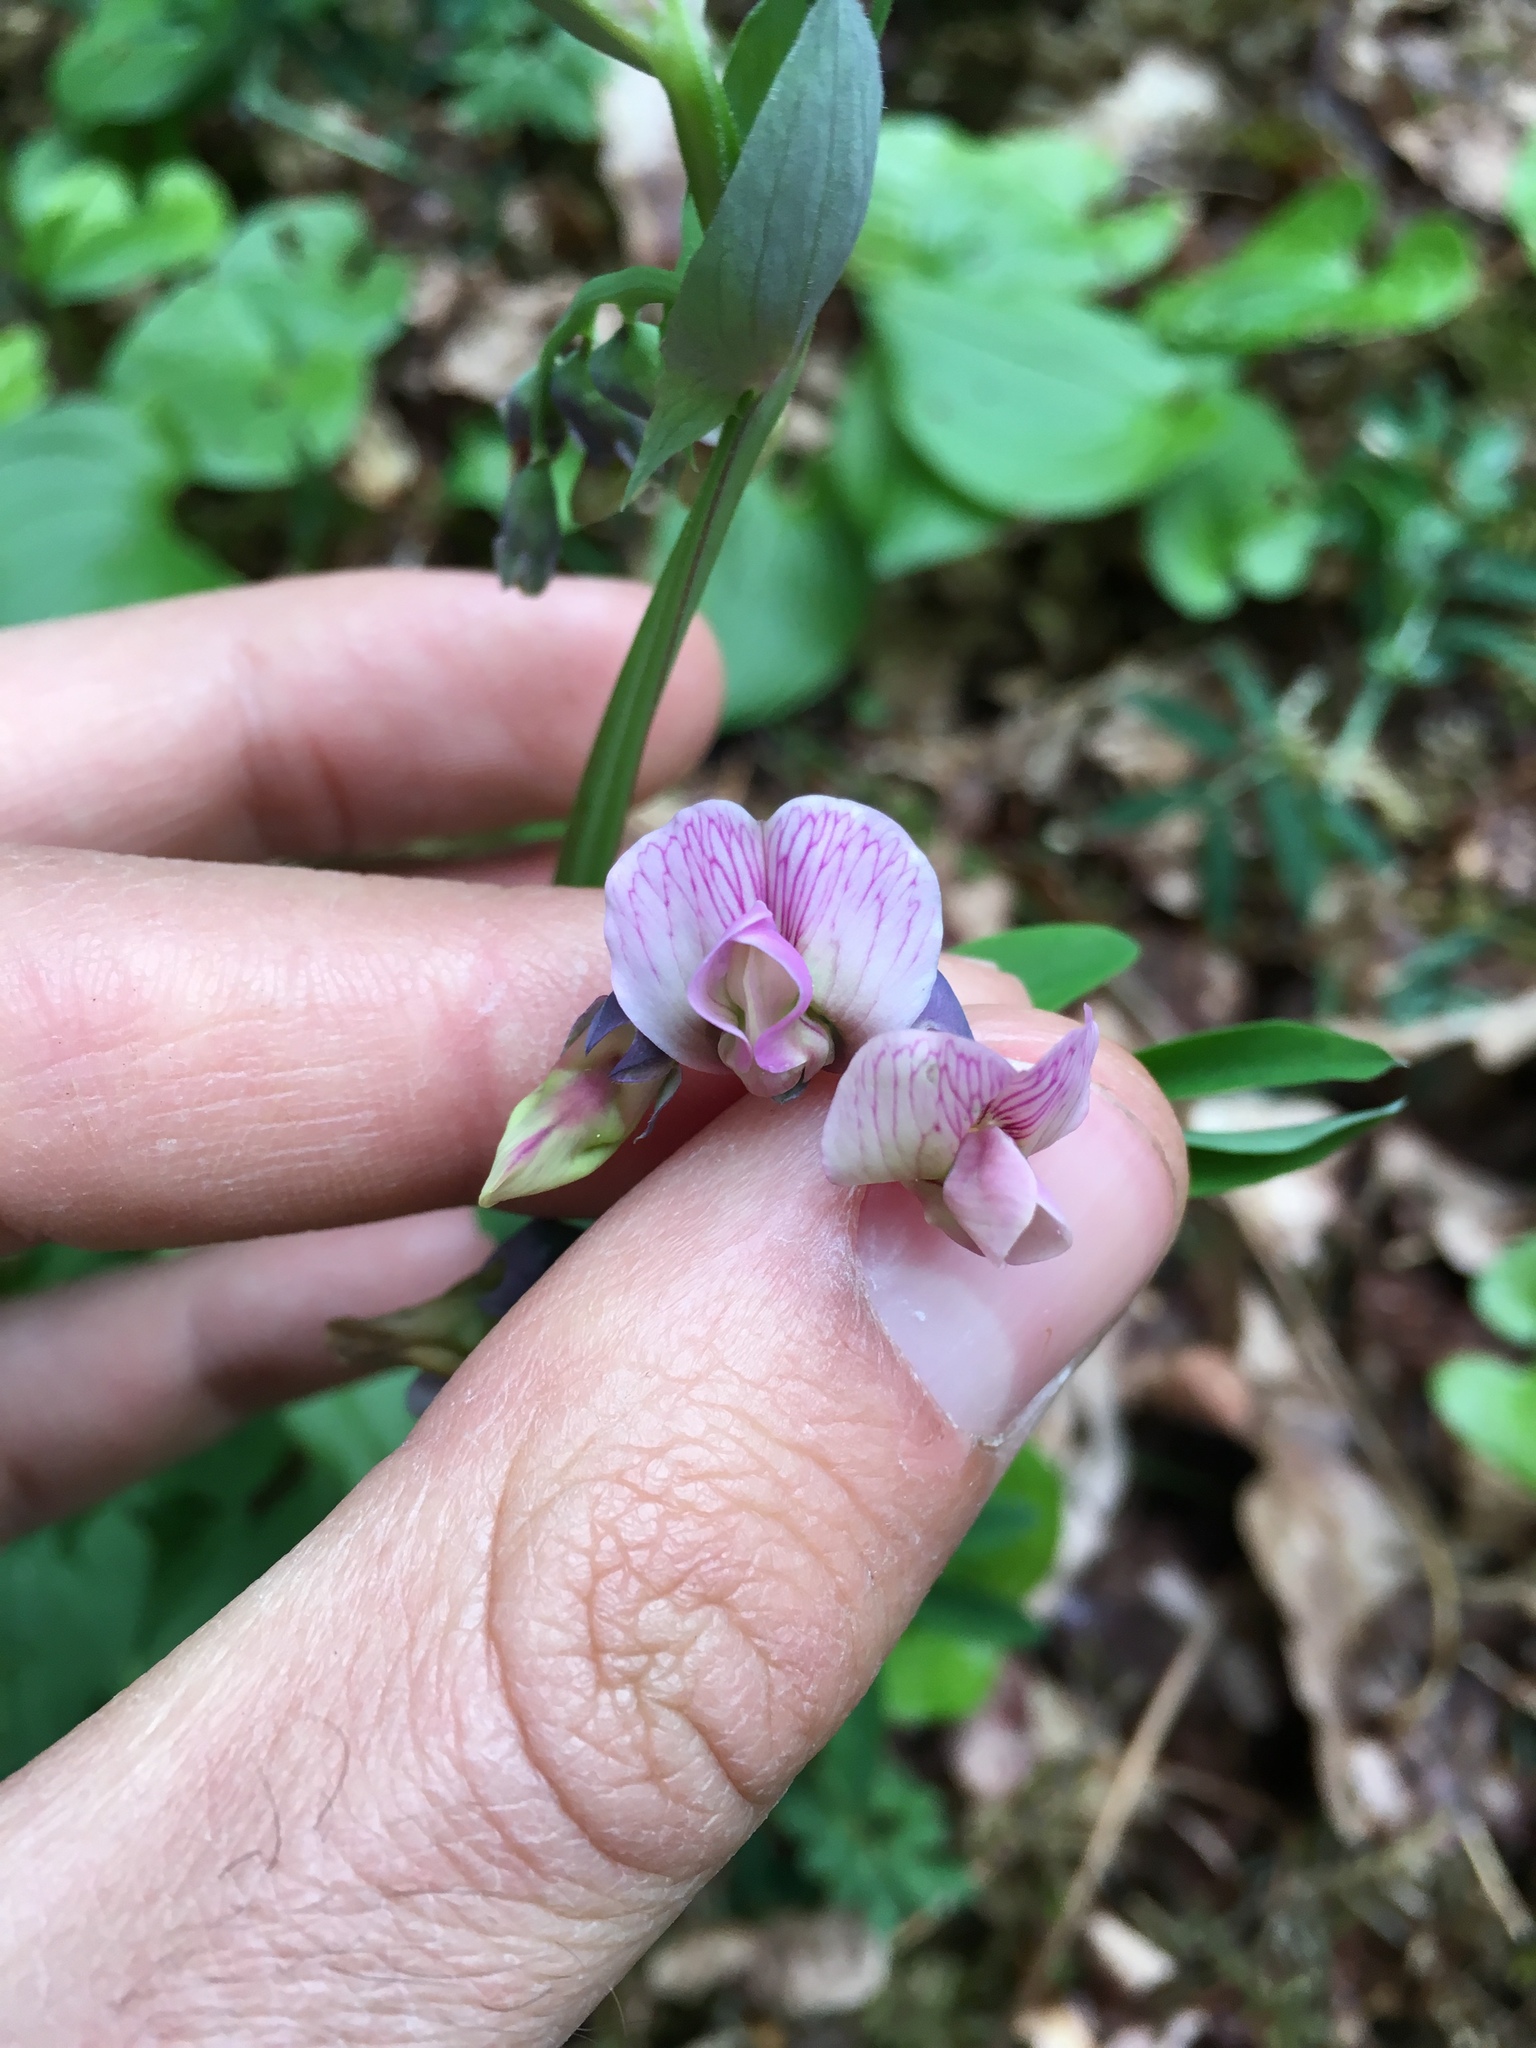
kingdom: Plantae
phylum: Tracheophyta
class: Magnoliopsida
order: Fabales
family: Fabaceae
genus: Lathyrus
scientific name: Lathyrus linifolius
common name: Bitter-vetch
